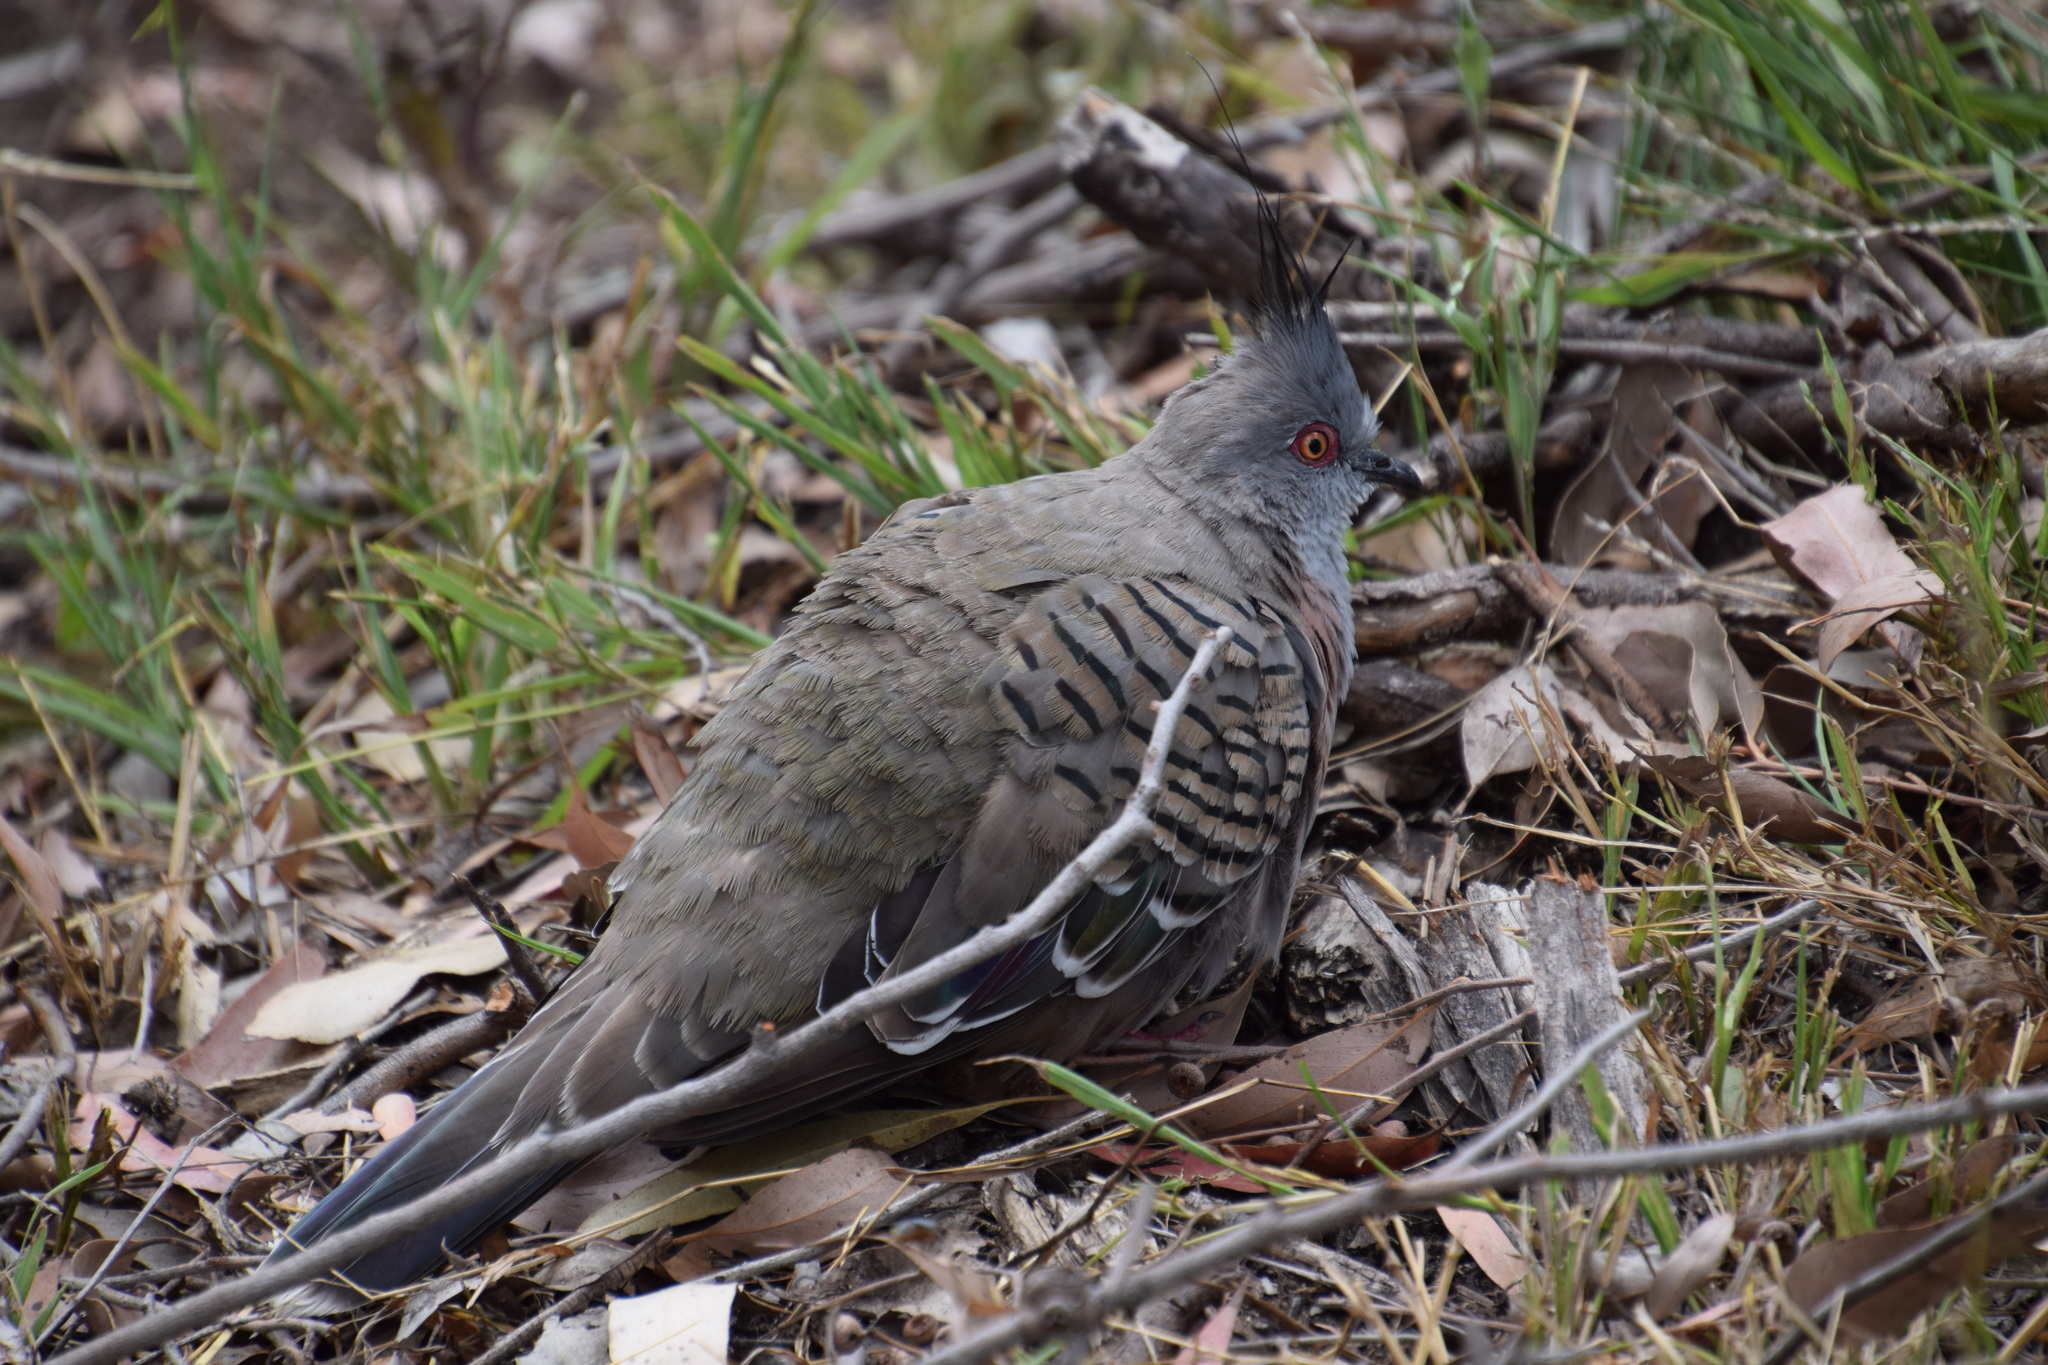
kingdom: Animalia
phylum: Chordata
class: Aves
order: Columbiformes
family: Columbidae
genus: Ocyphaps
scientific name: Ocyphaps lophotes
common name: Crested pigeon
